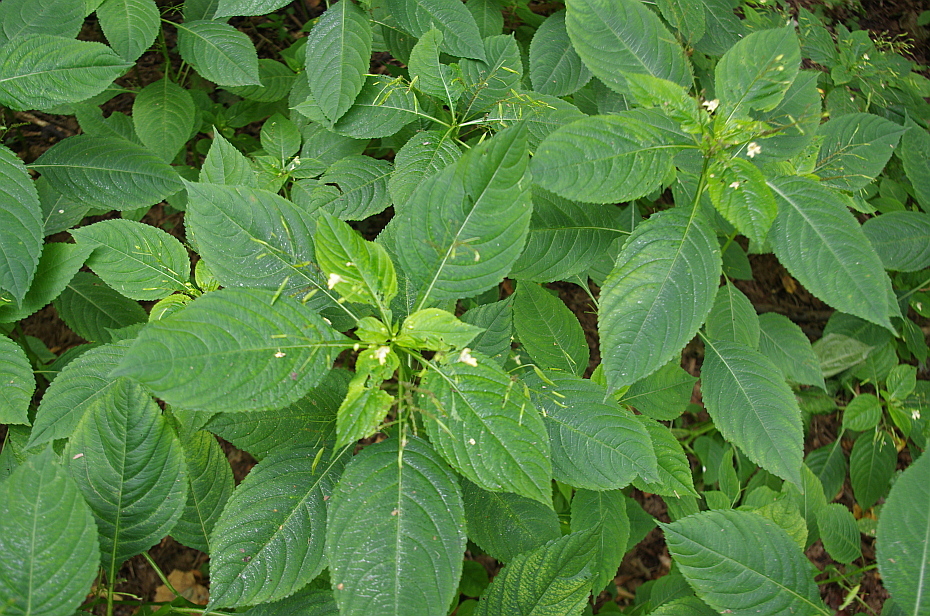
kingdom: Plantae
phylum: Tracheophyta
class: Magnoliopsida
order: Ericales
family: Balsaminaceae
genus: Impatiens
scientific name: Impatiens parviflora
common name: Small balsam
